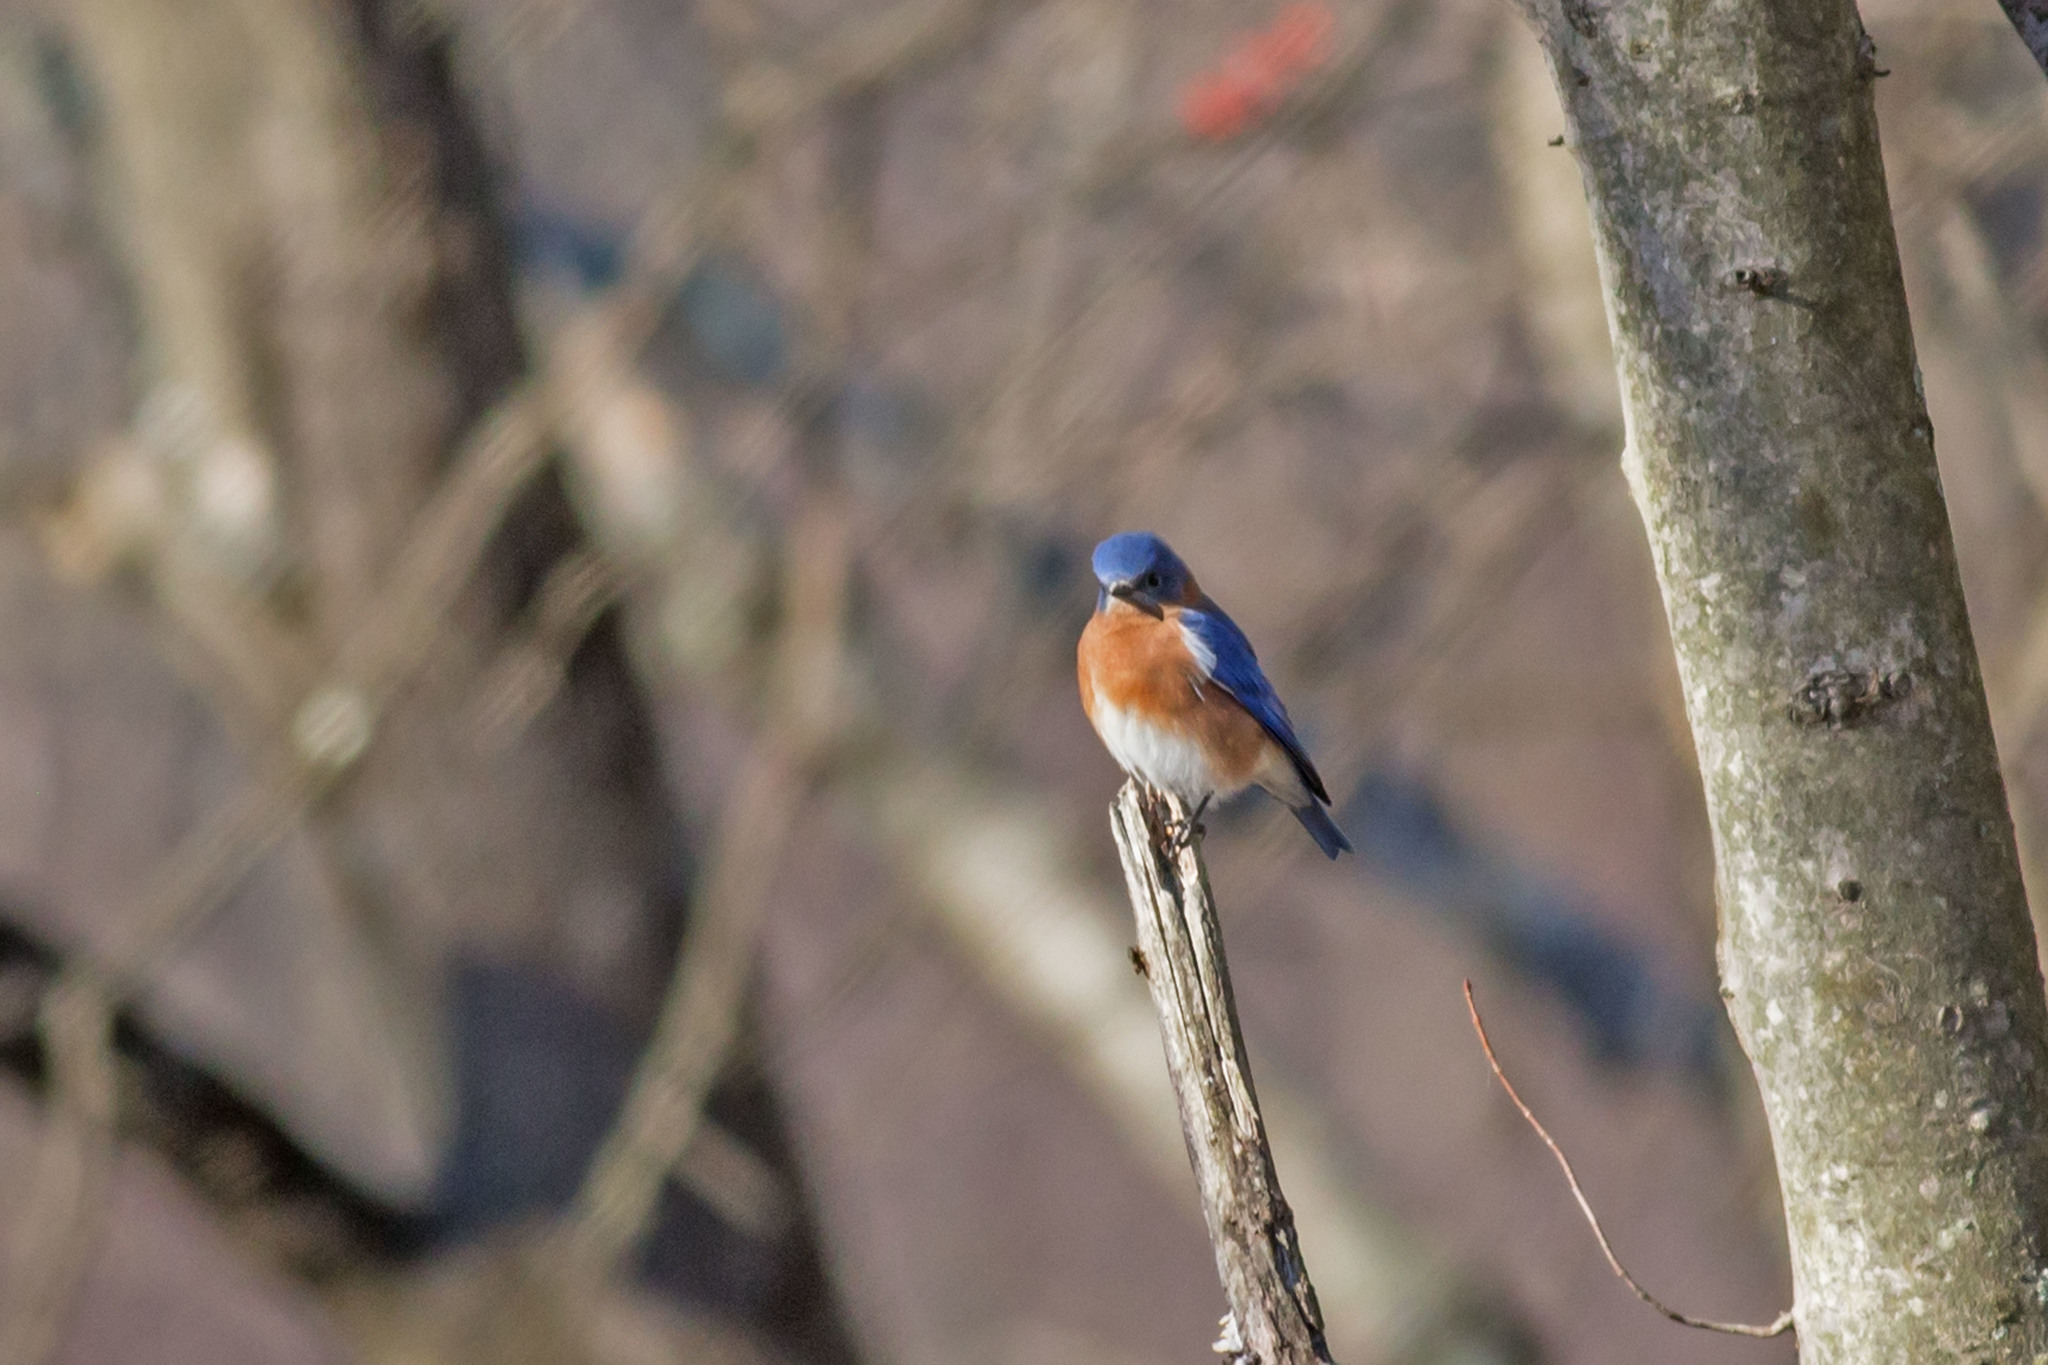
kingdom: Animalia
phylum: Chordata
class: Aves
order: Passeriformes
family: Turdidae
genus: Sialia
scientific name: Sialia sialis
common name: Eastern bluebird
